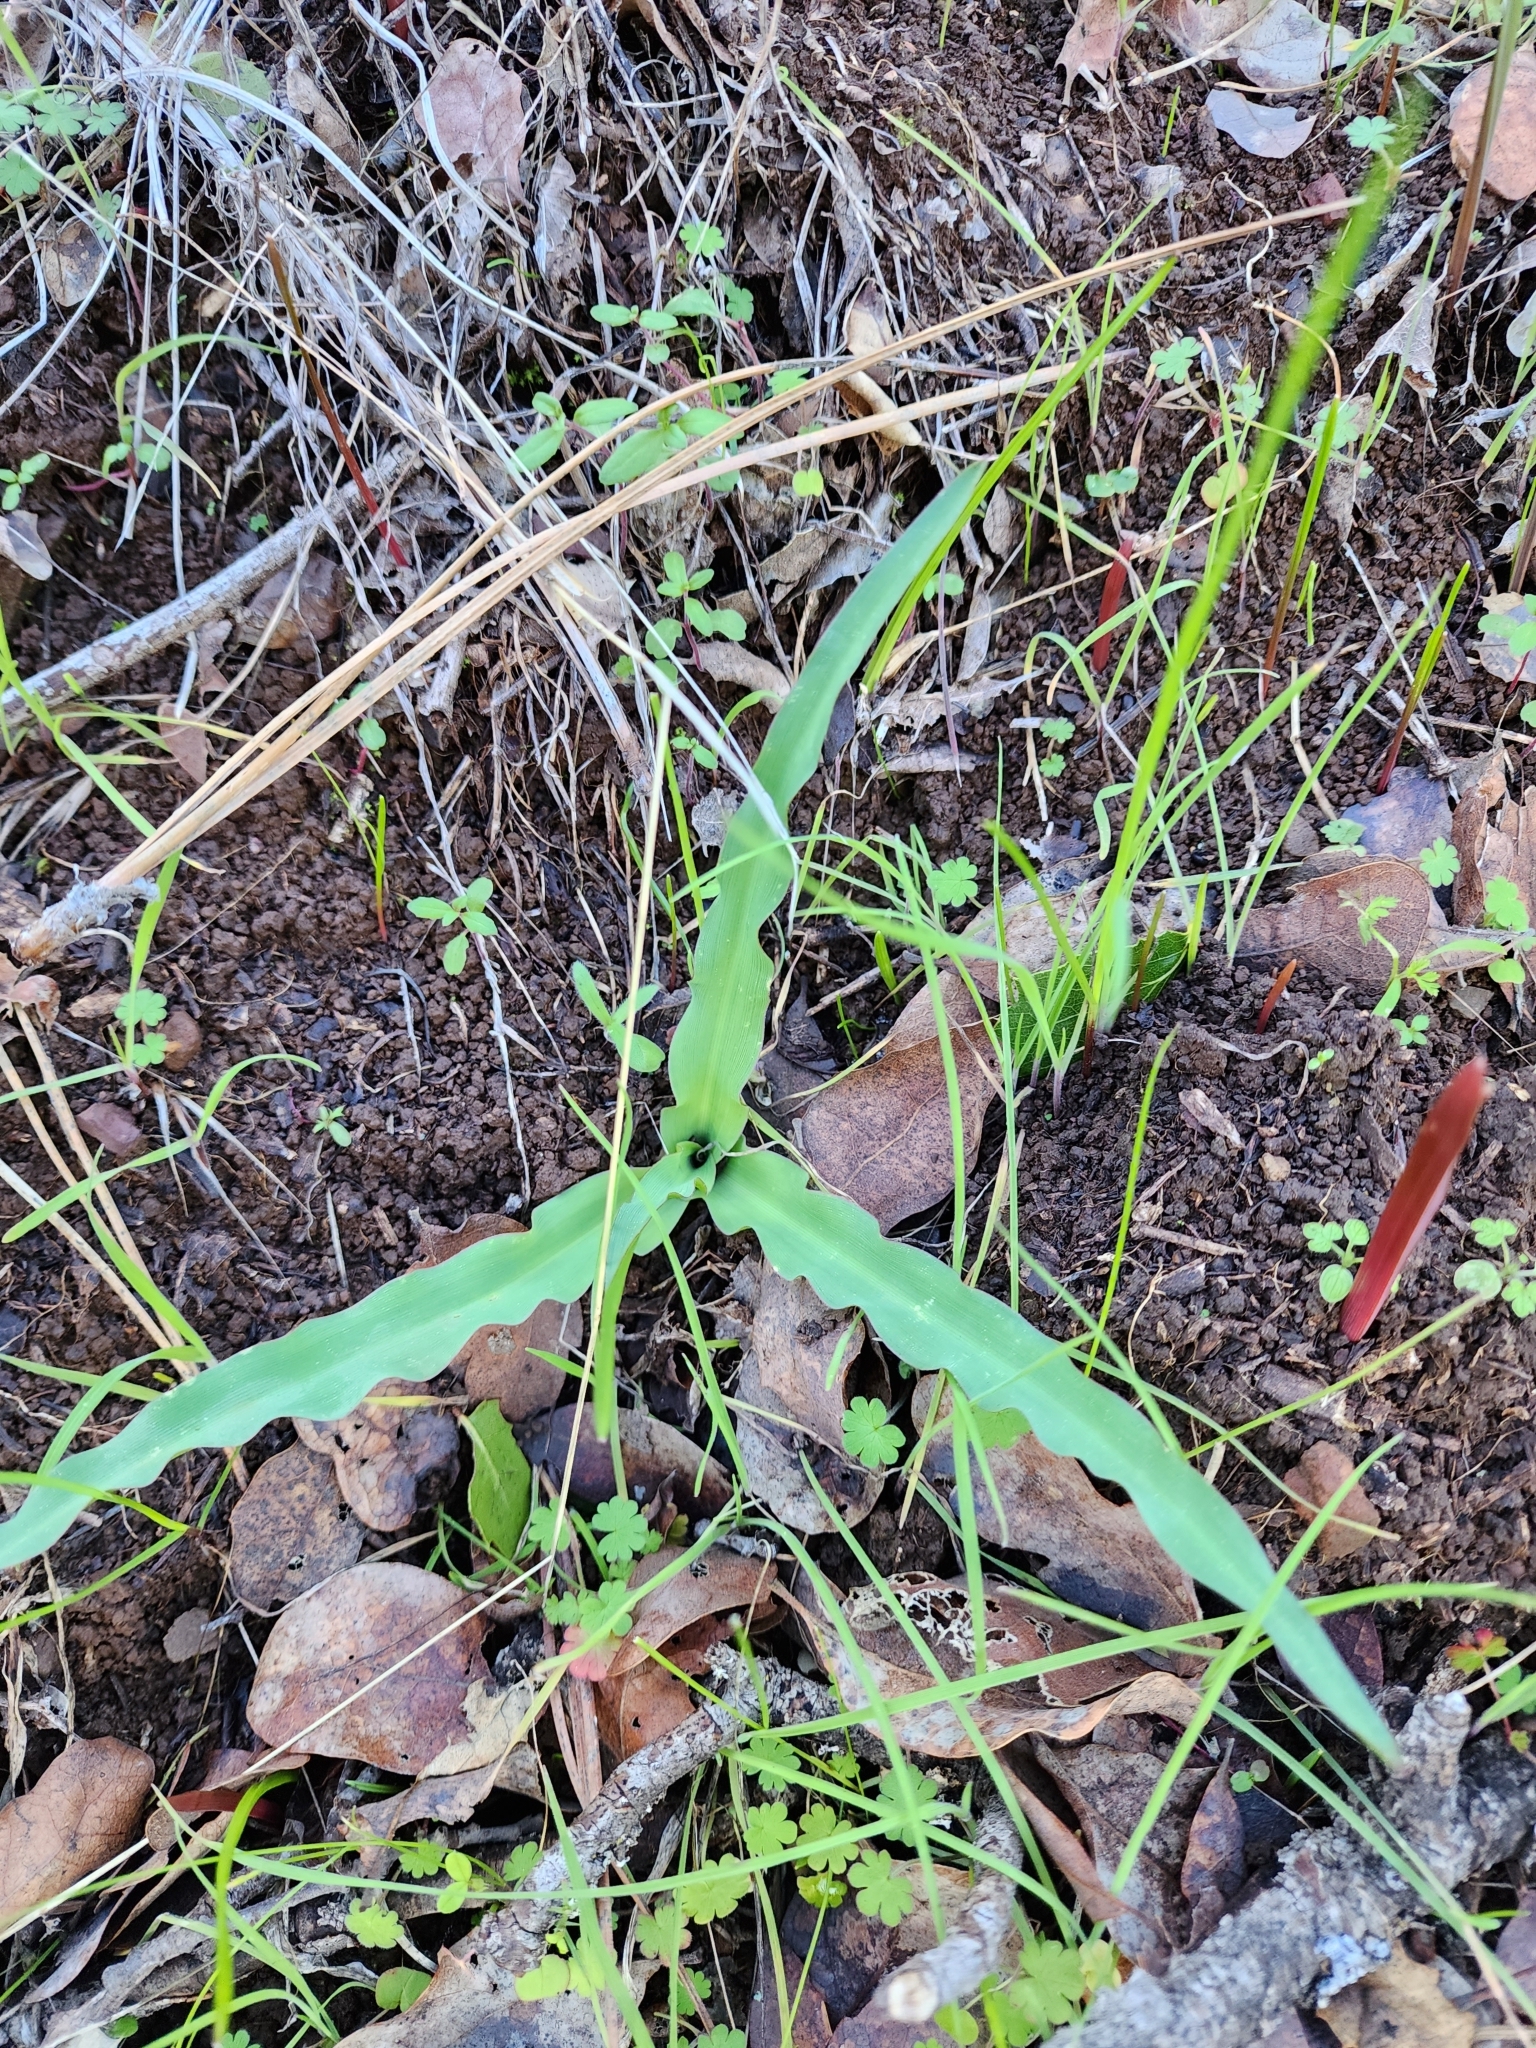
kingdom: Plantae
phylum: Tracheophyta
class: Liliopsida
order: Asparagales
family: Asparagaceae
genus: Chlorogalum
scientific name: Chlorogalum pomeridianum
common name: Amole
